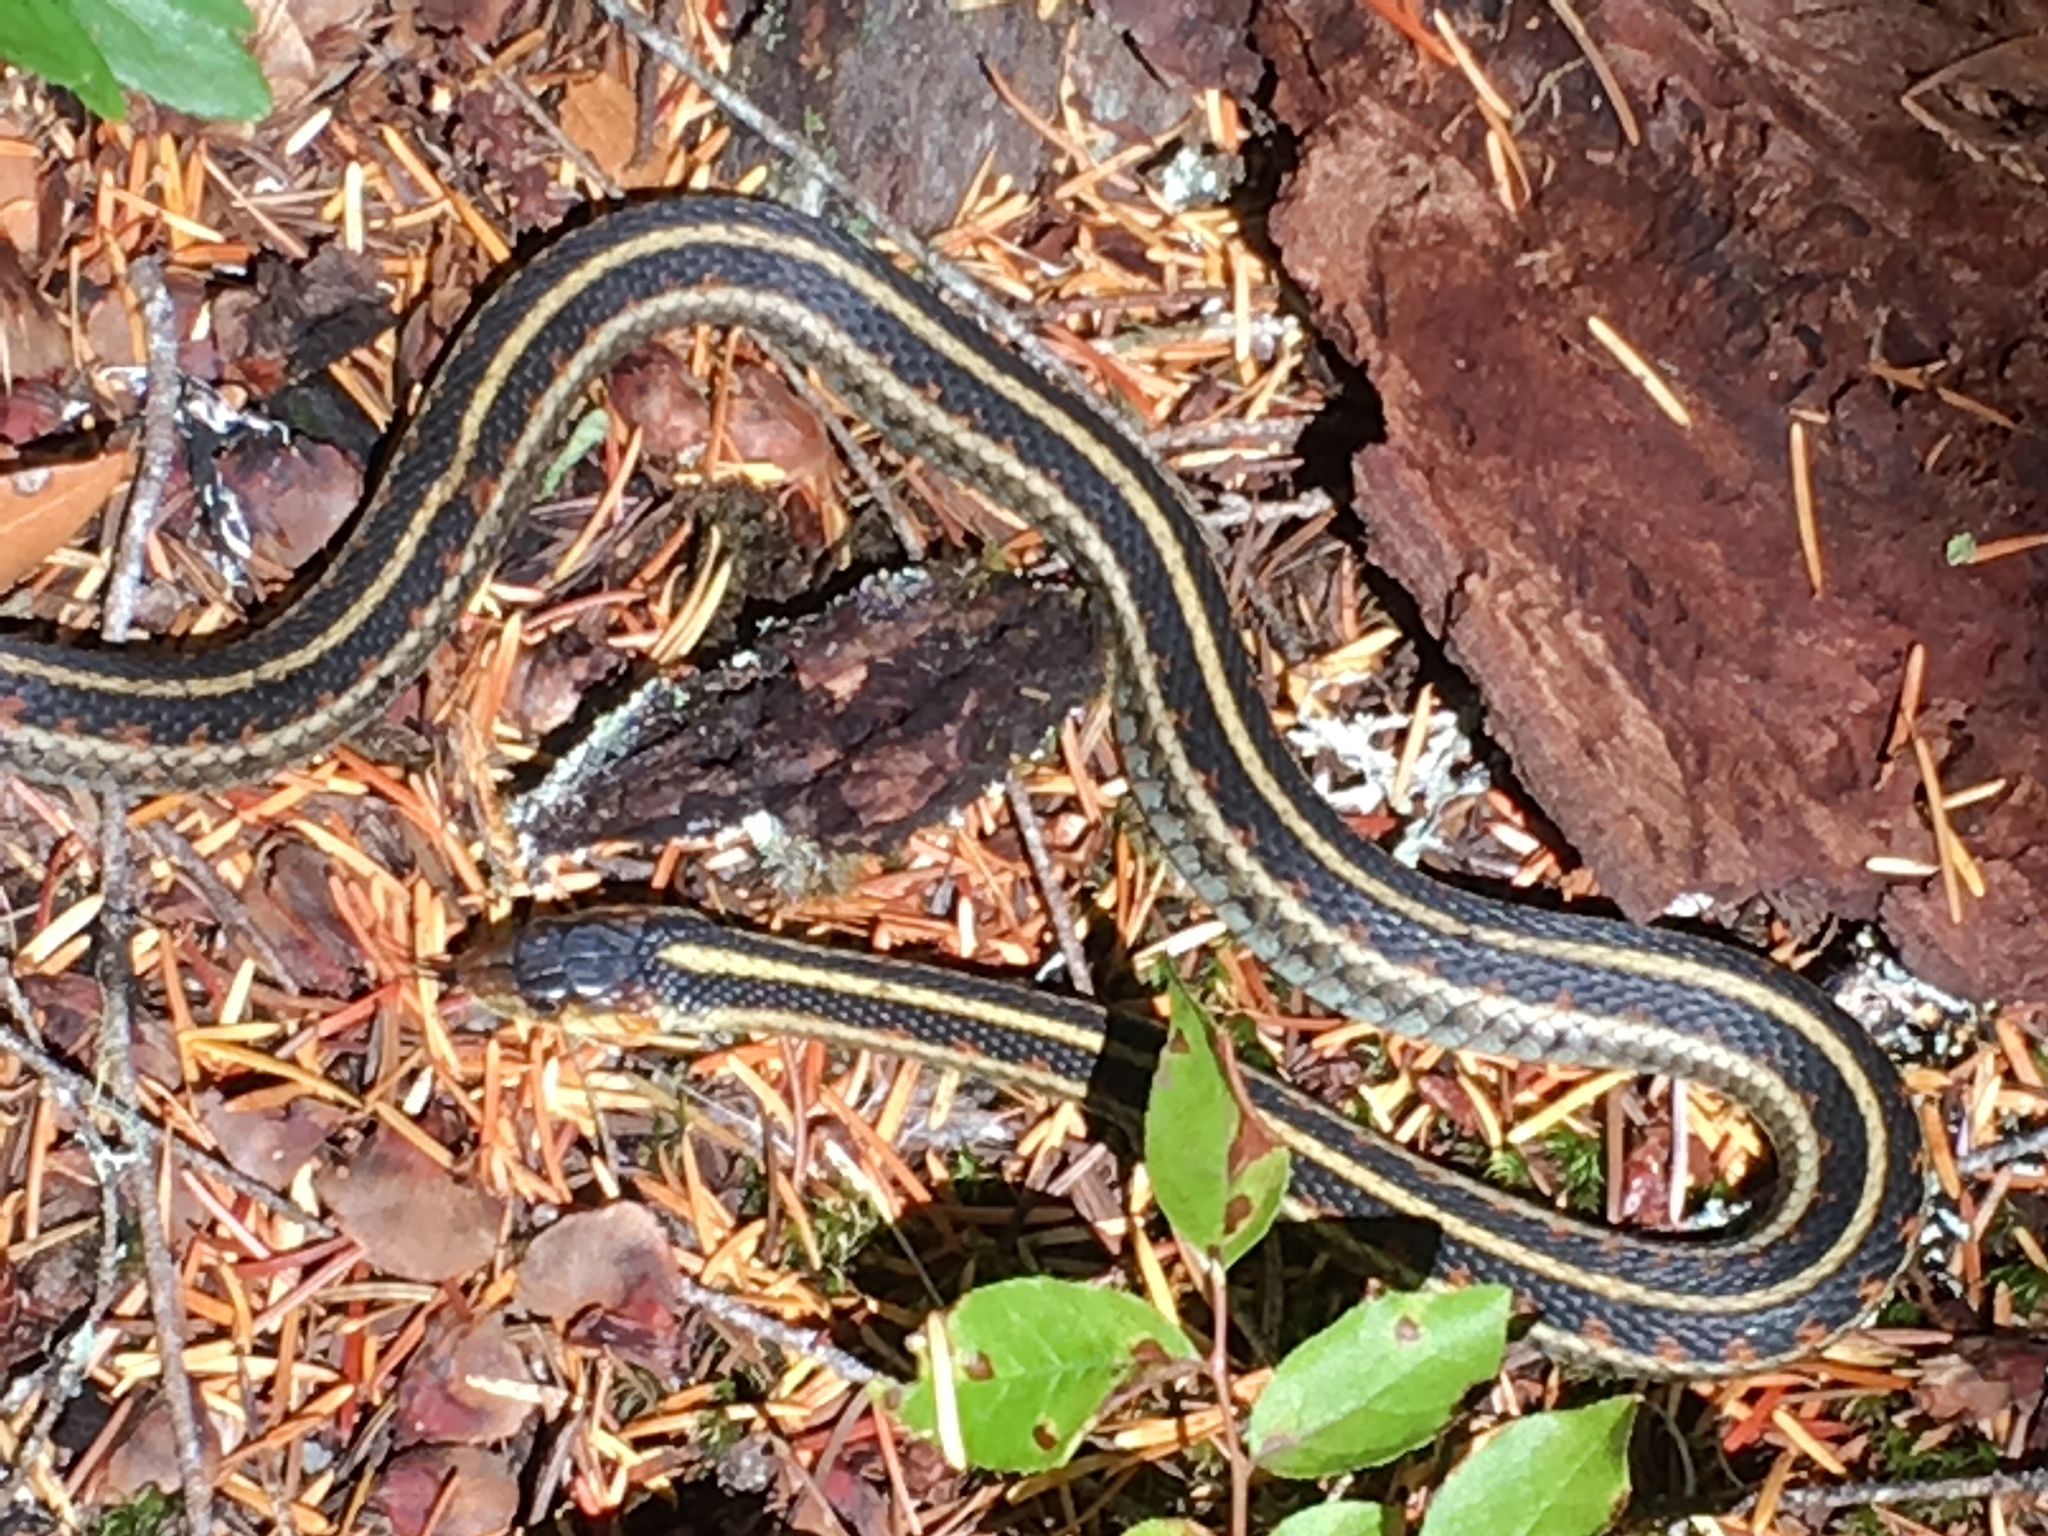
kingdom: Animalia
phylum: Chordata
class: Squamata
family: Colubridae
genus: Thamnophis
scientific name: Thamnophis sirtalis
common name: Common garter snake
